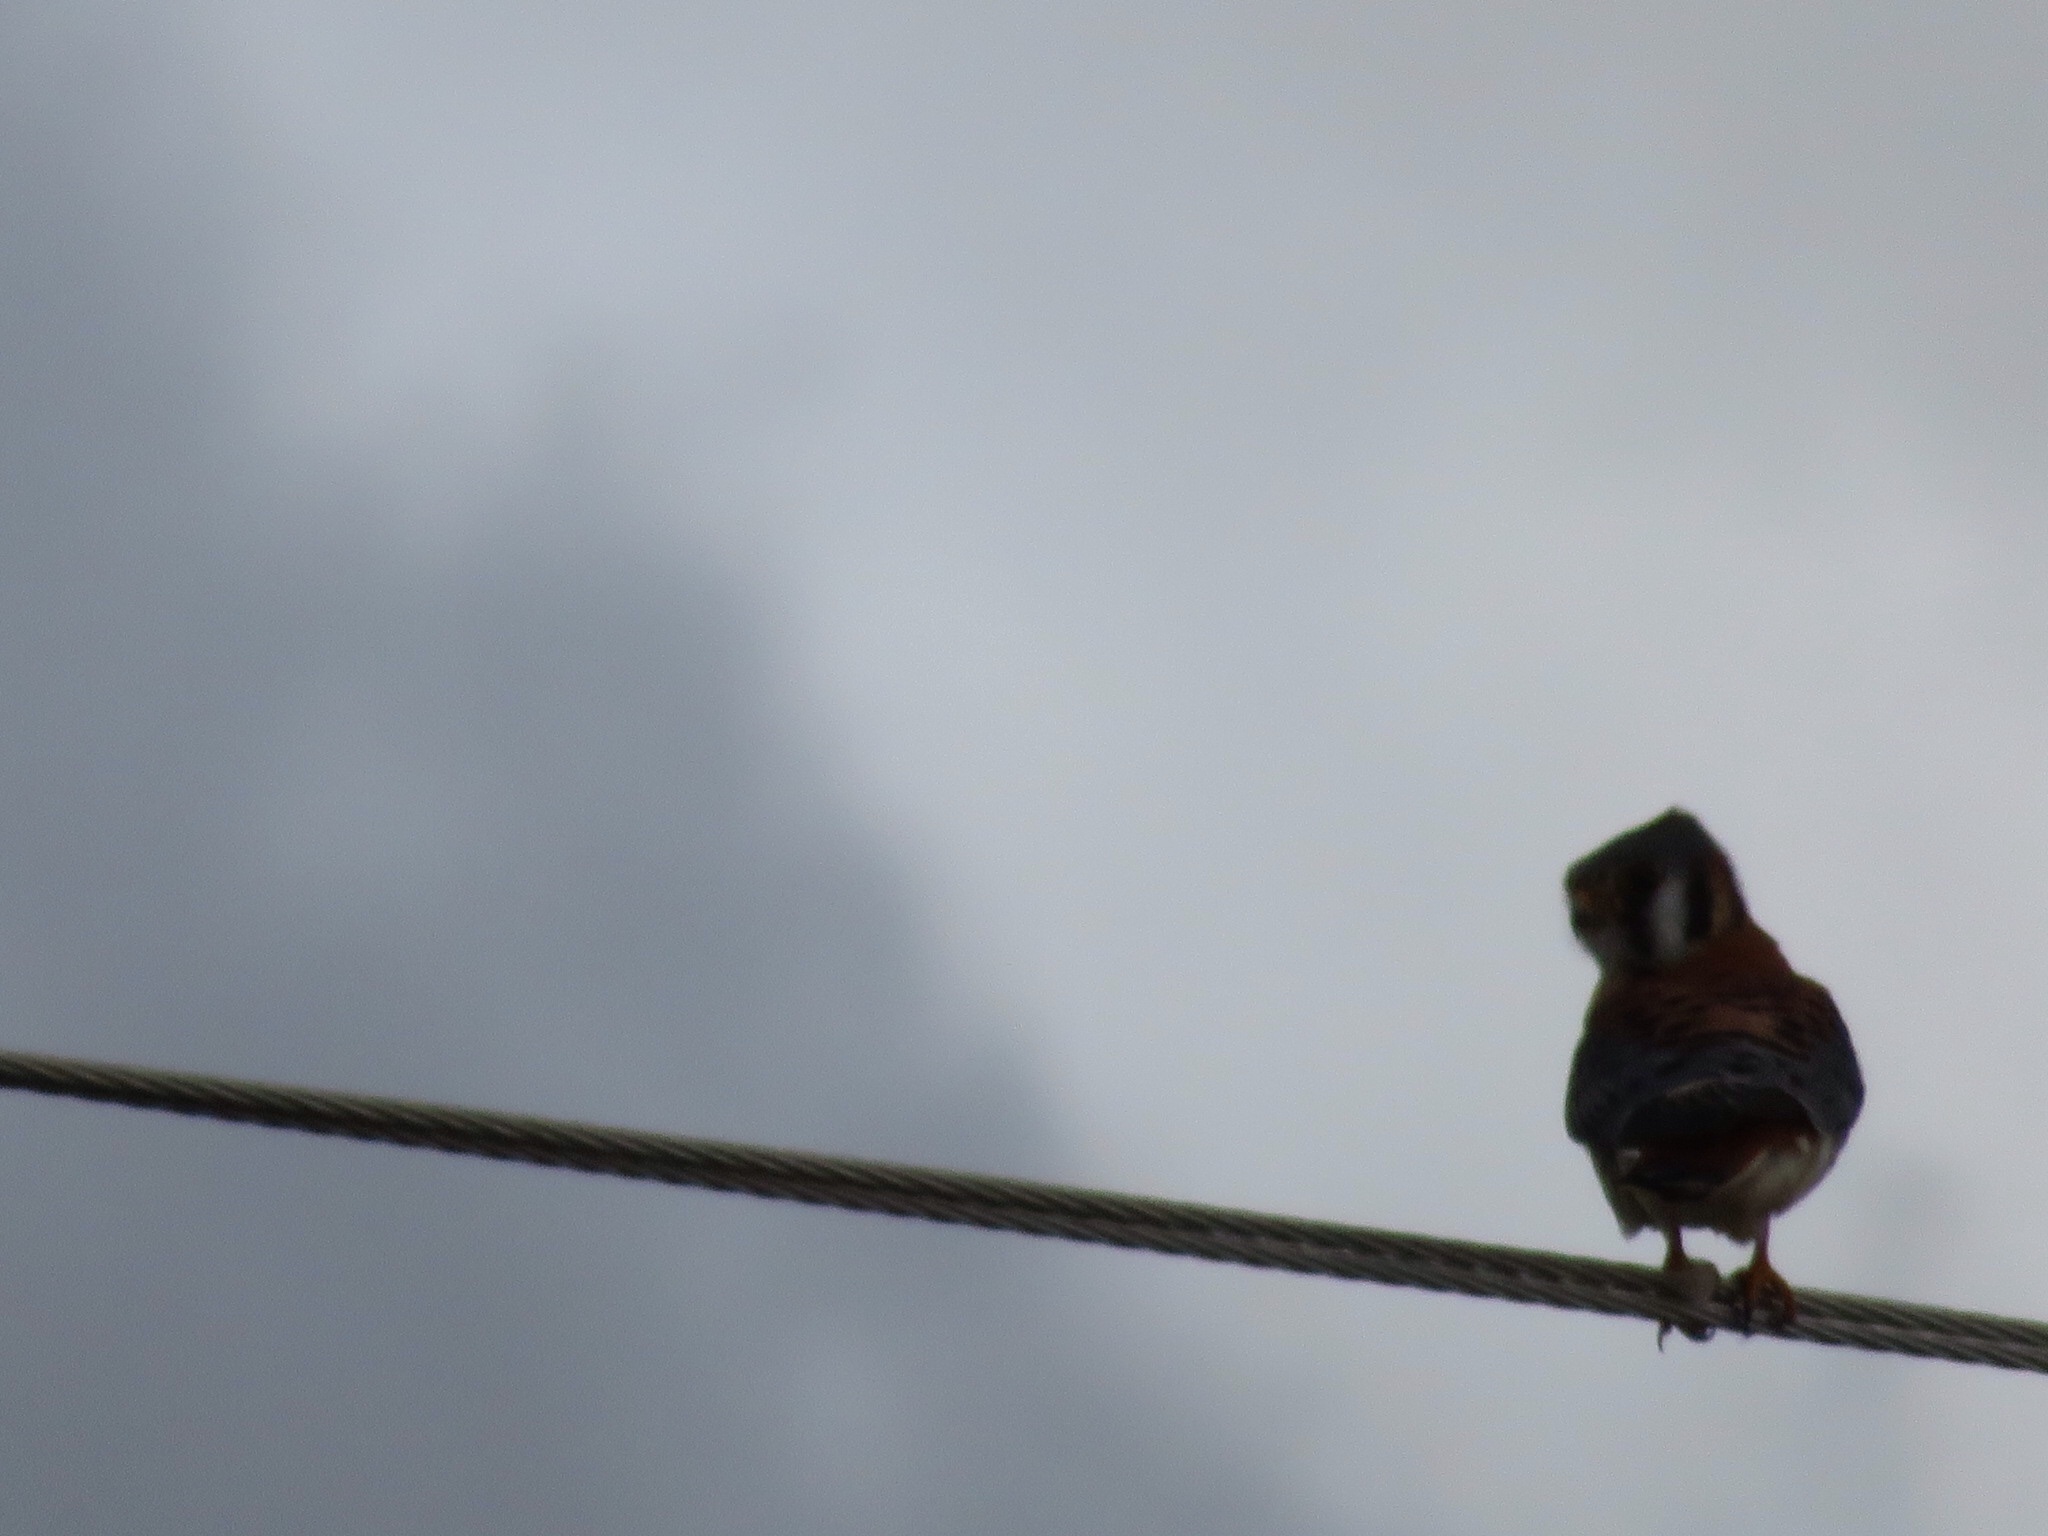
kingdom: Animalia
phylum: Chordata
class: Aves
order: Falconiformes
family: Falconidae
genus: Falco
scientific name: Falco sparverius
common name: American kestrel
